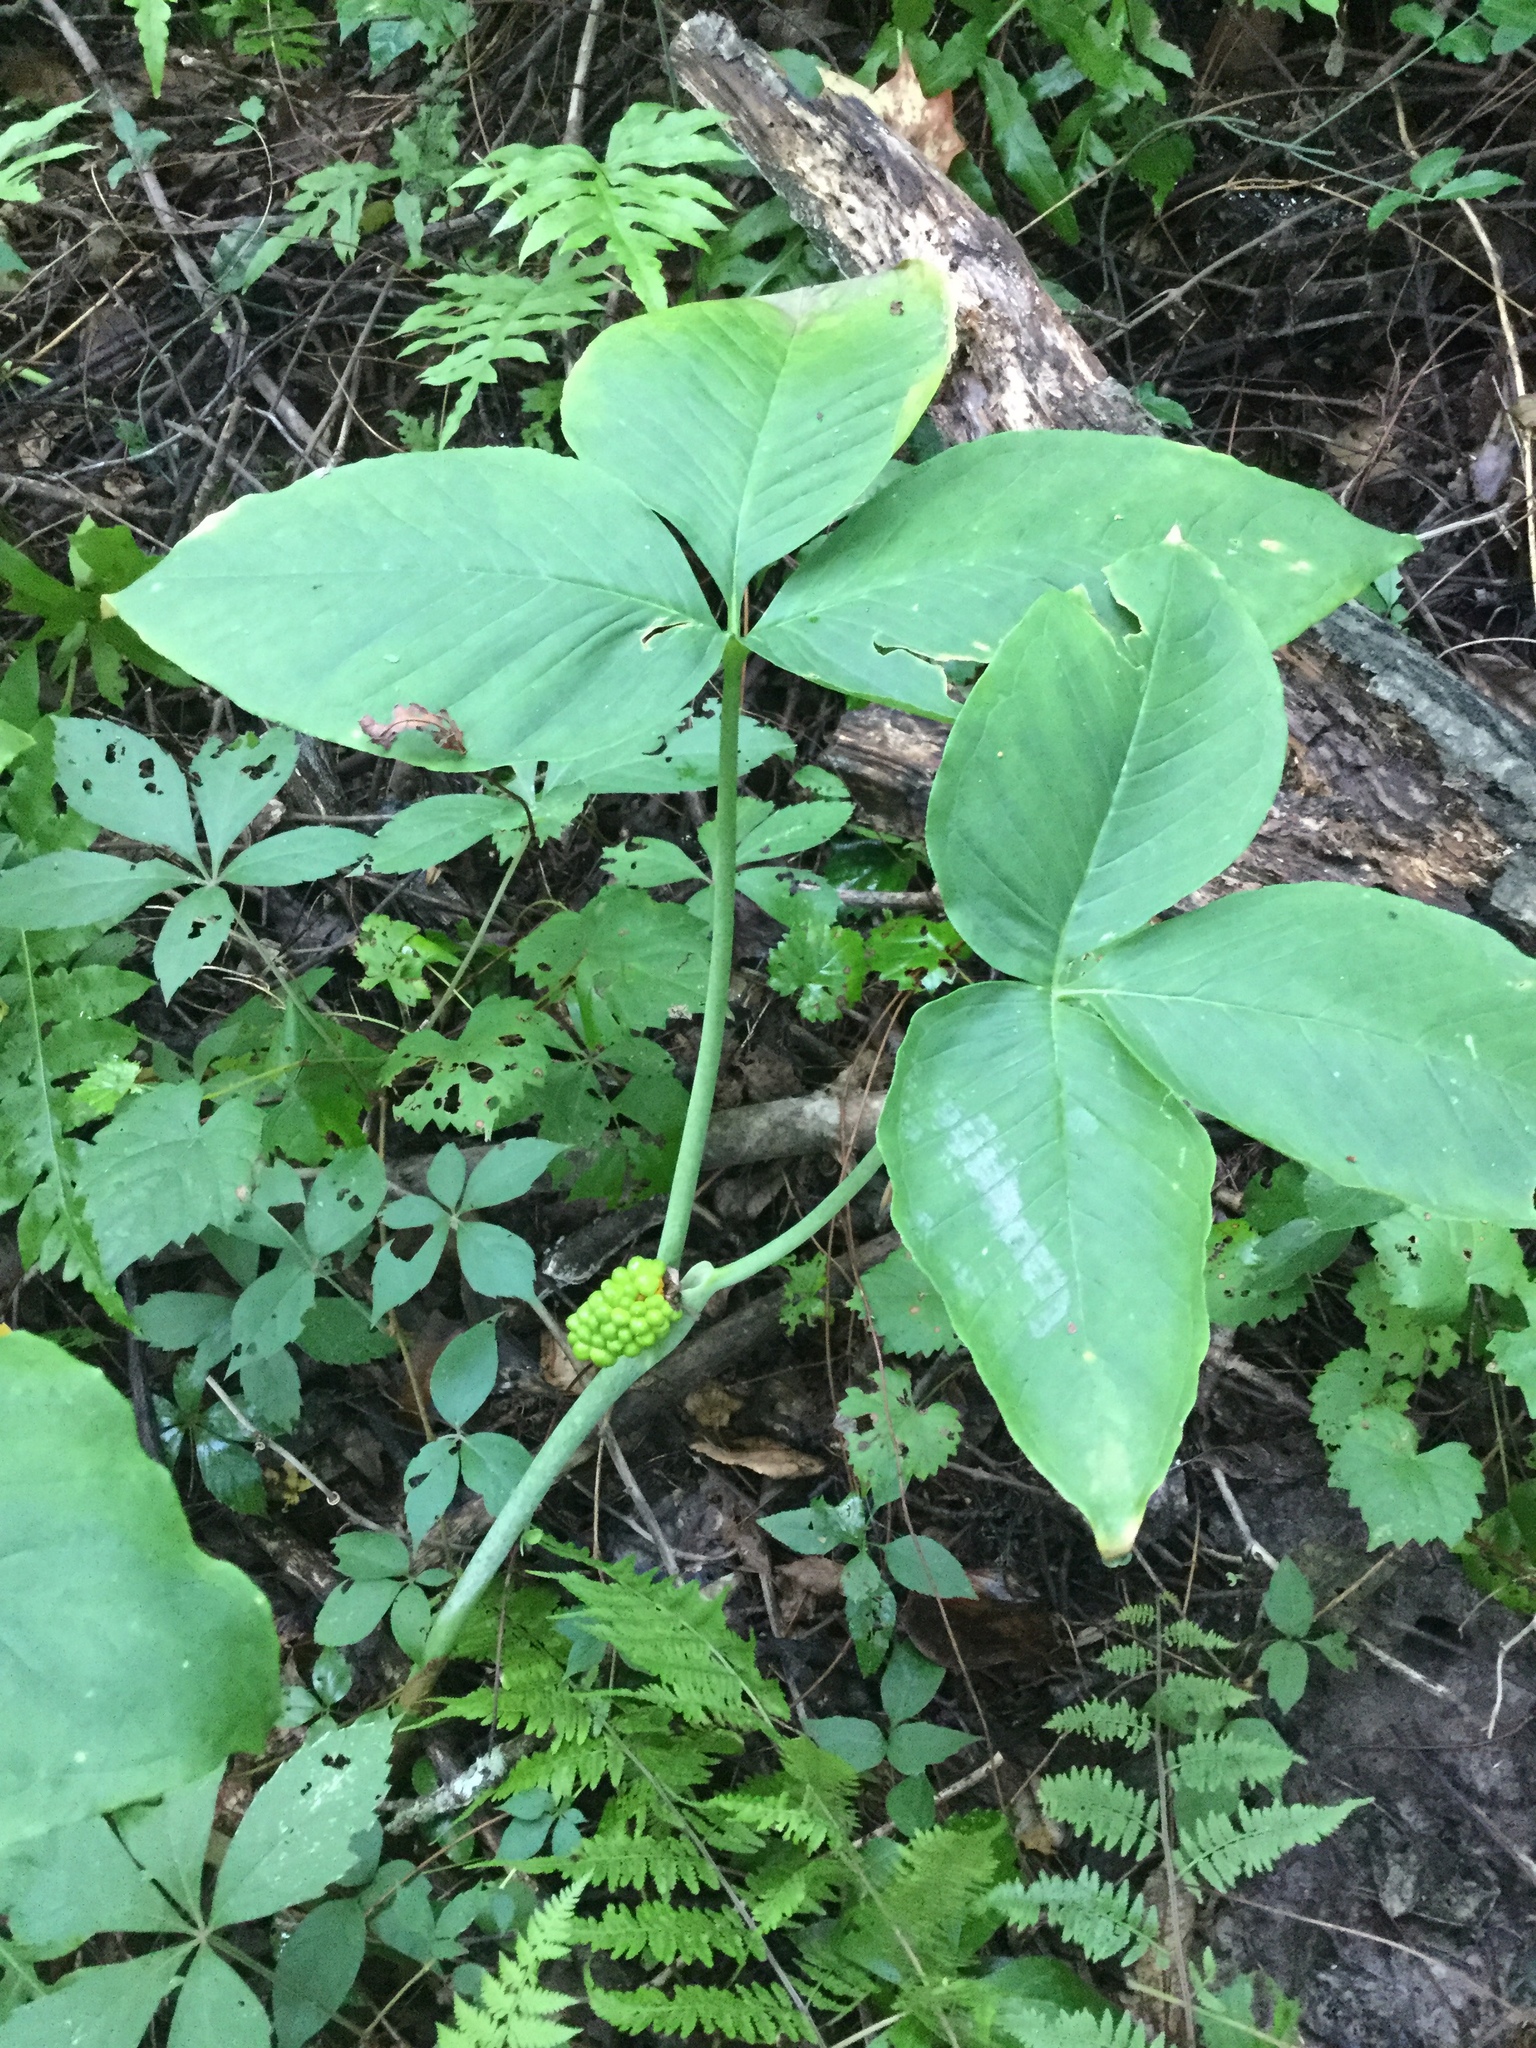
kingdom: Plantae
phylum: Tracheophyta
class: Liliopsida
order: Alismatales
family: Araceae
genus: Arisaema
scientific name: Arisaema triphyllum
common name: Jack-in-the-pulpit
